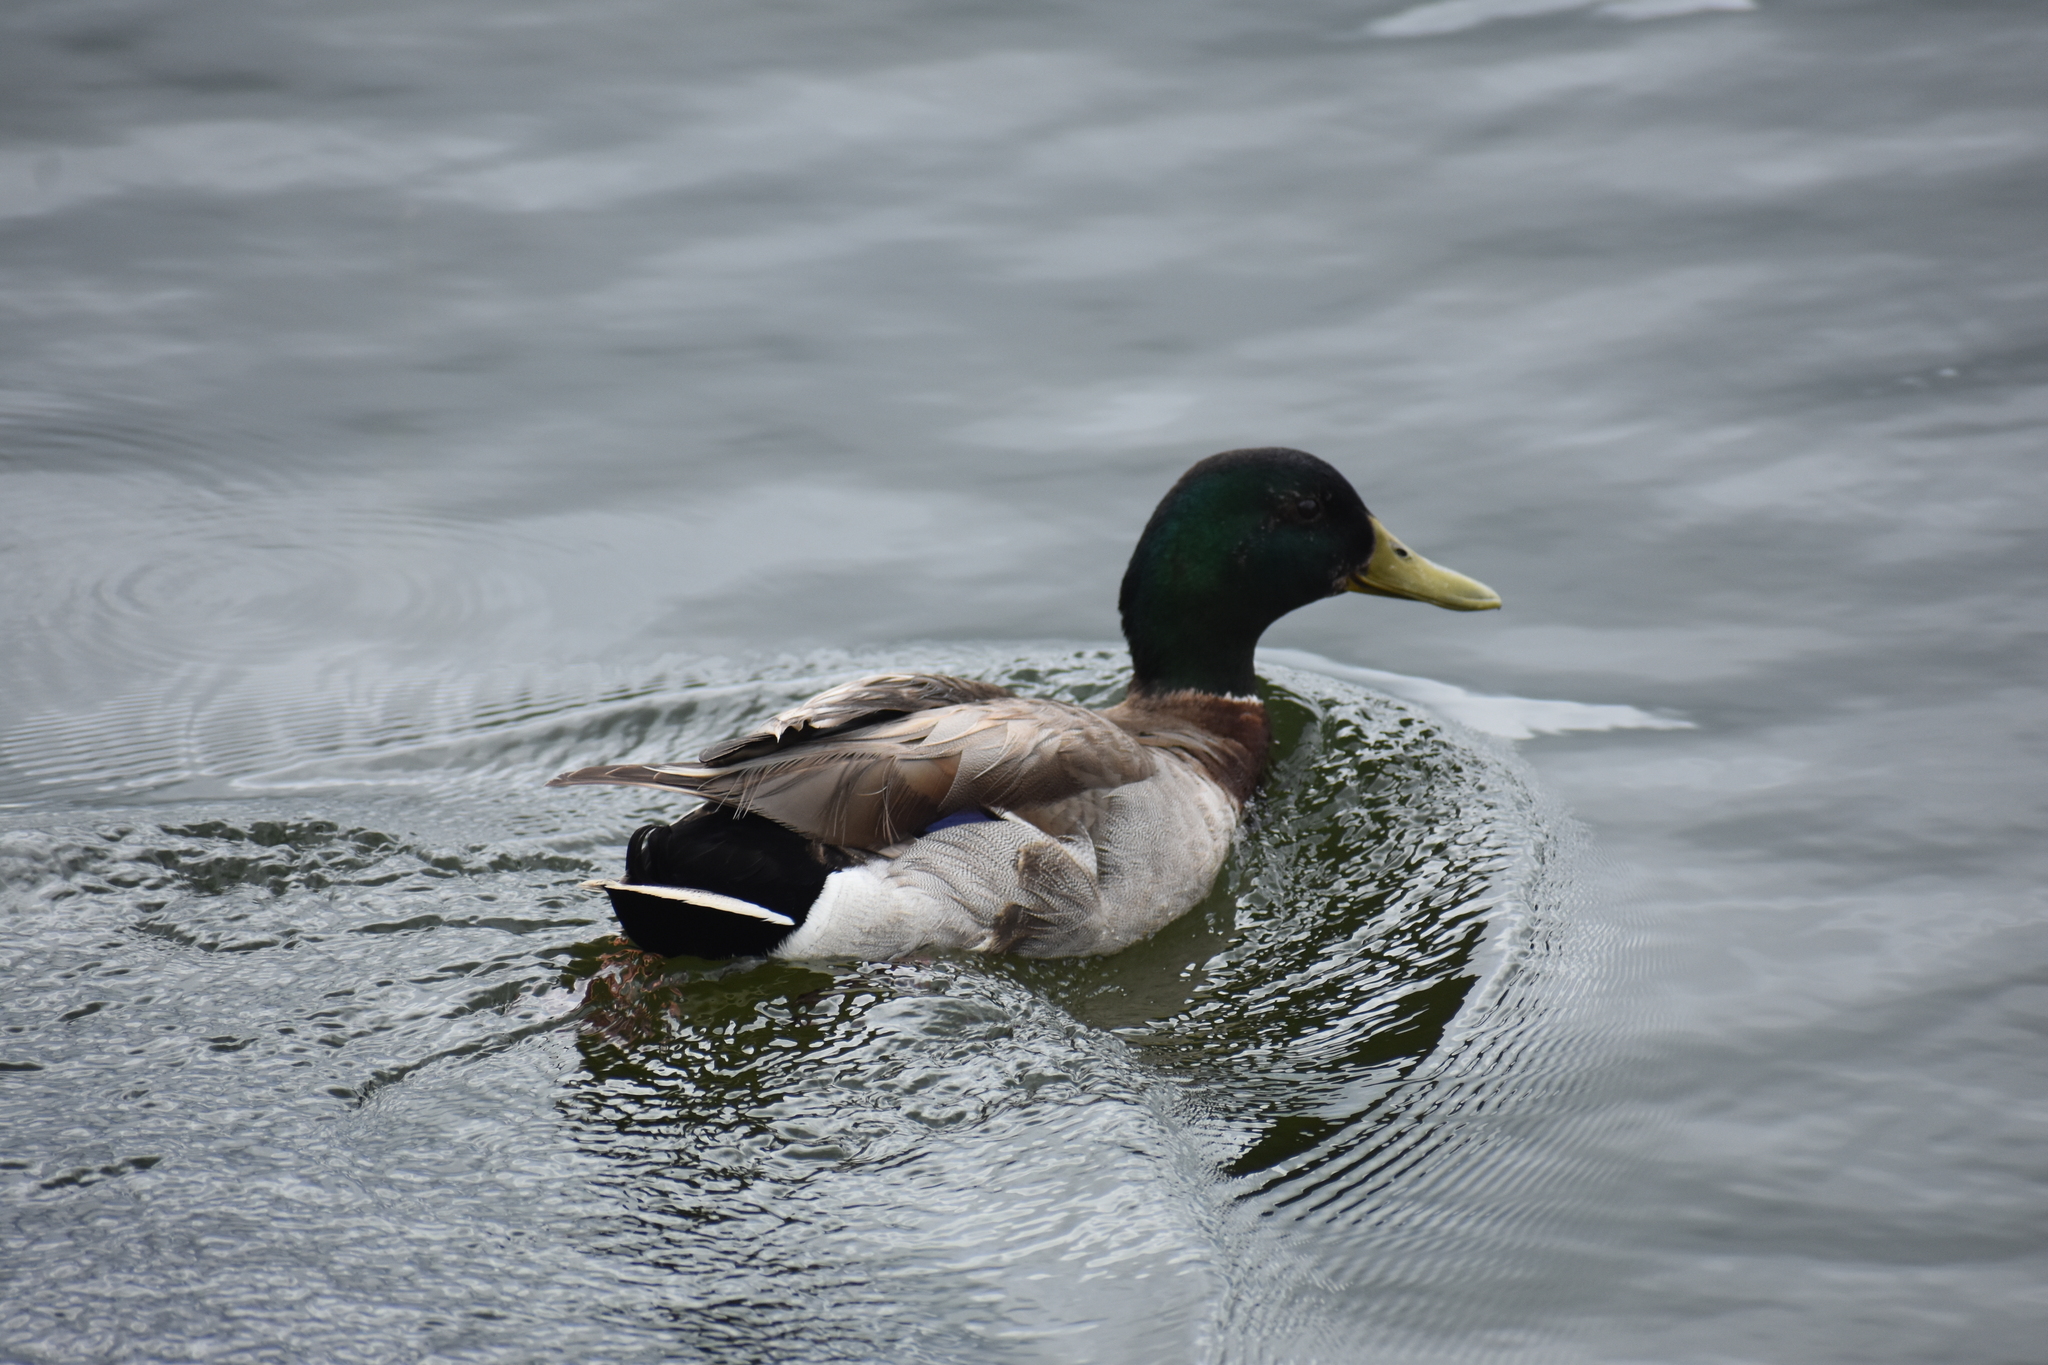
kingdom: Animalia
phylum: Chordata
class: Aves
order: Anseriformes
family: Anatidae
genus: Anas
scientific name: Anas platyrhynchos
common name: Mallard
